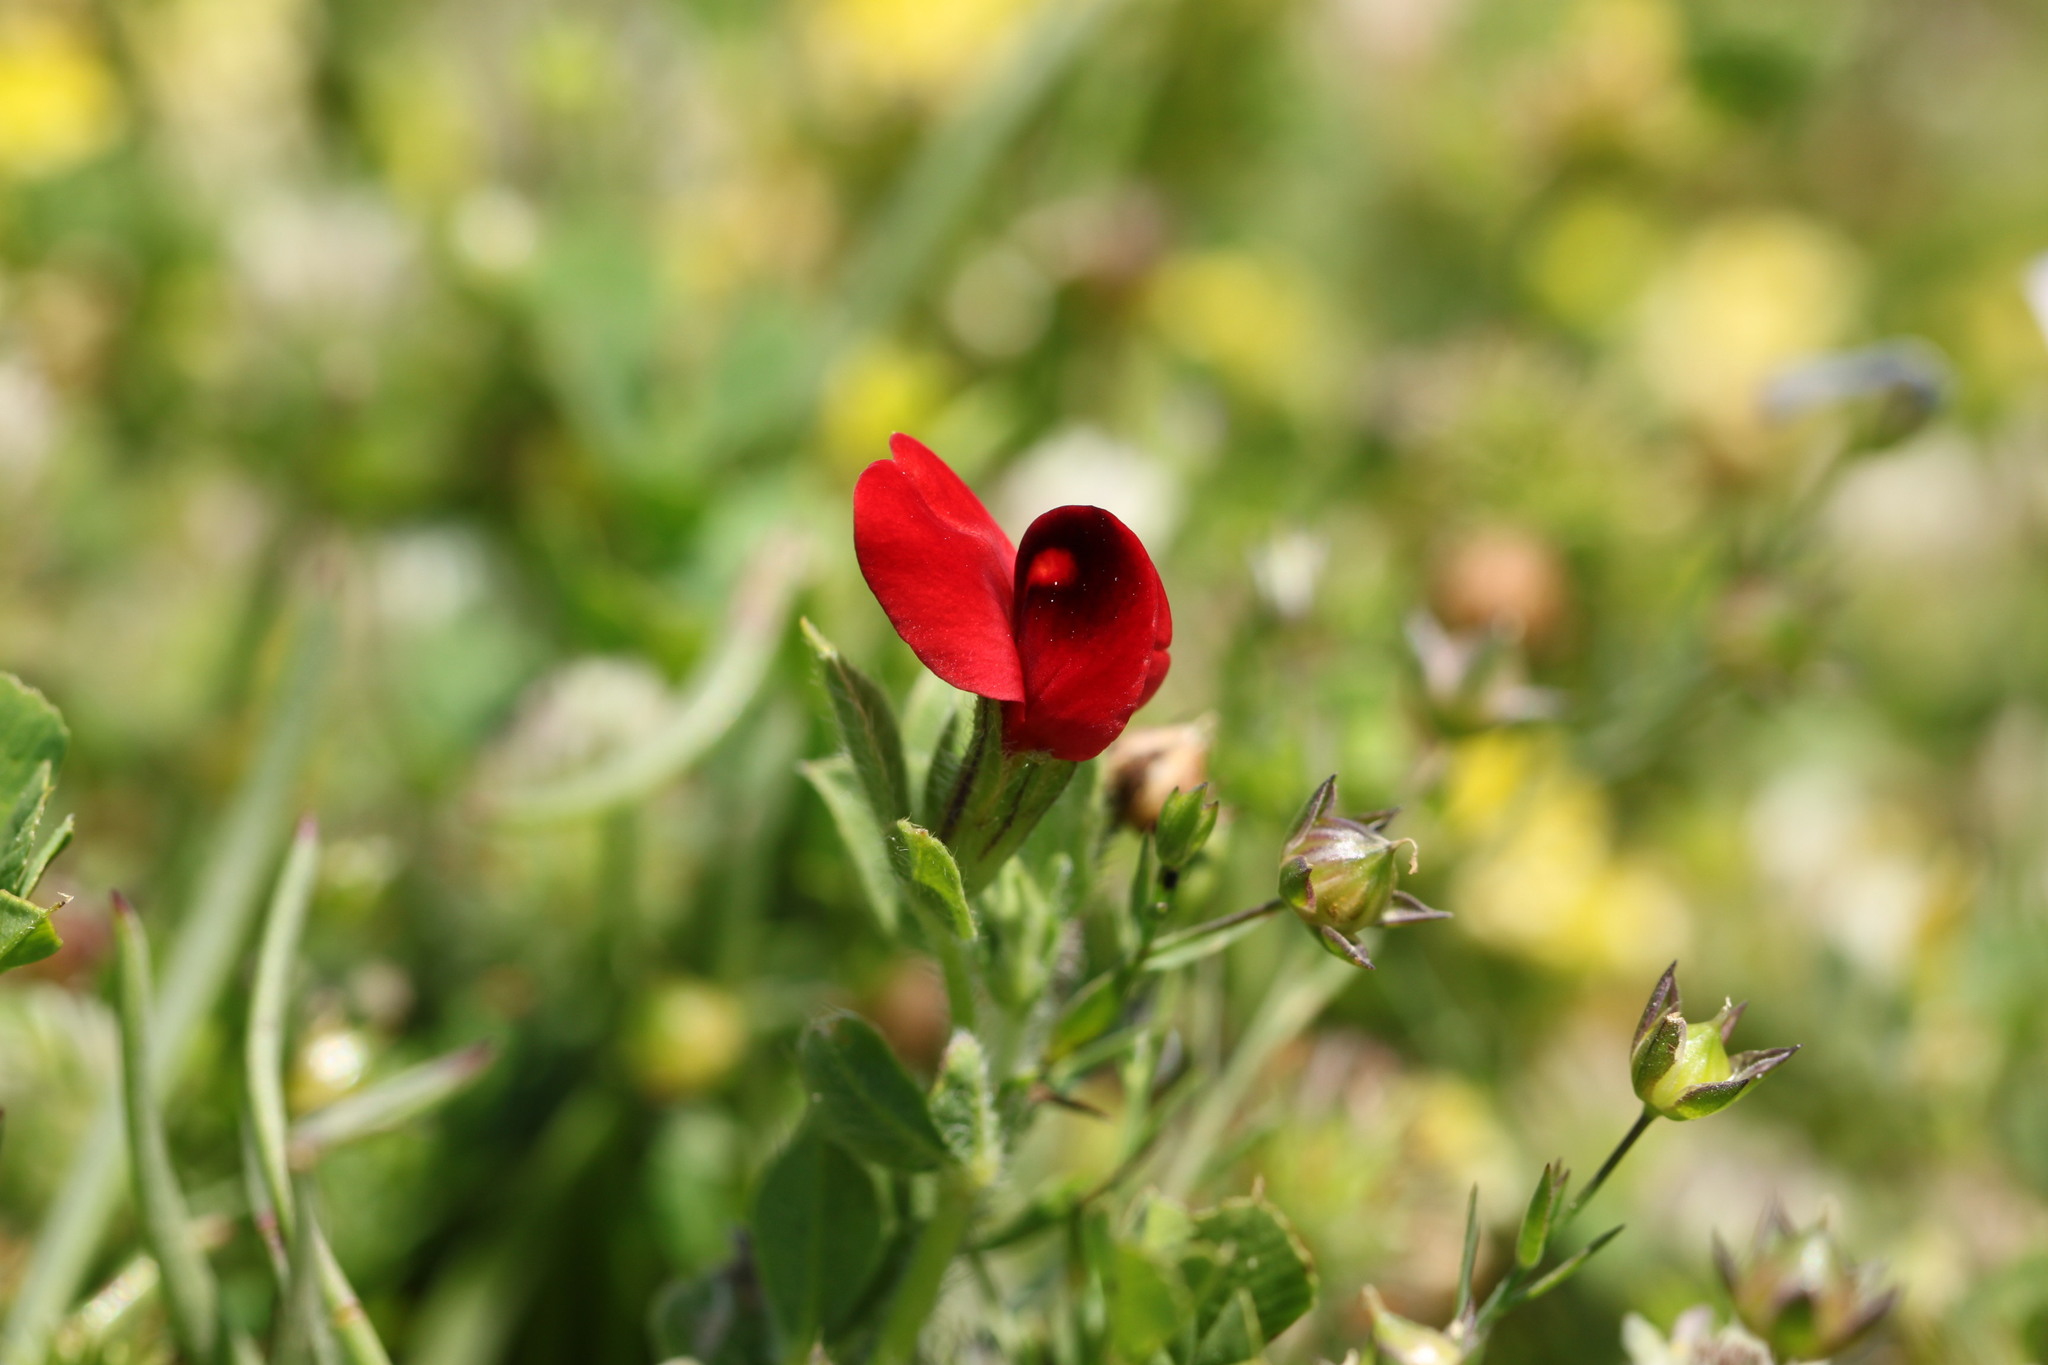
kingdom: Plantae
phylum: Tracheophyta
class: Magnoliopsida
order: Fabales
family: Fabaceae
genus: Lotus
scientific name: Lotus tetragonolobus
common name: Asparagus-pea
